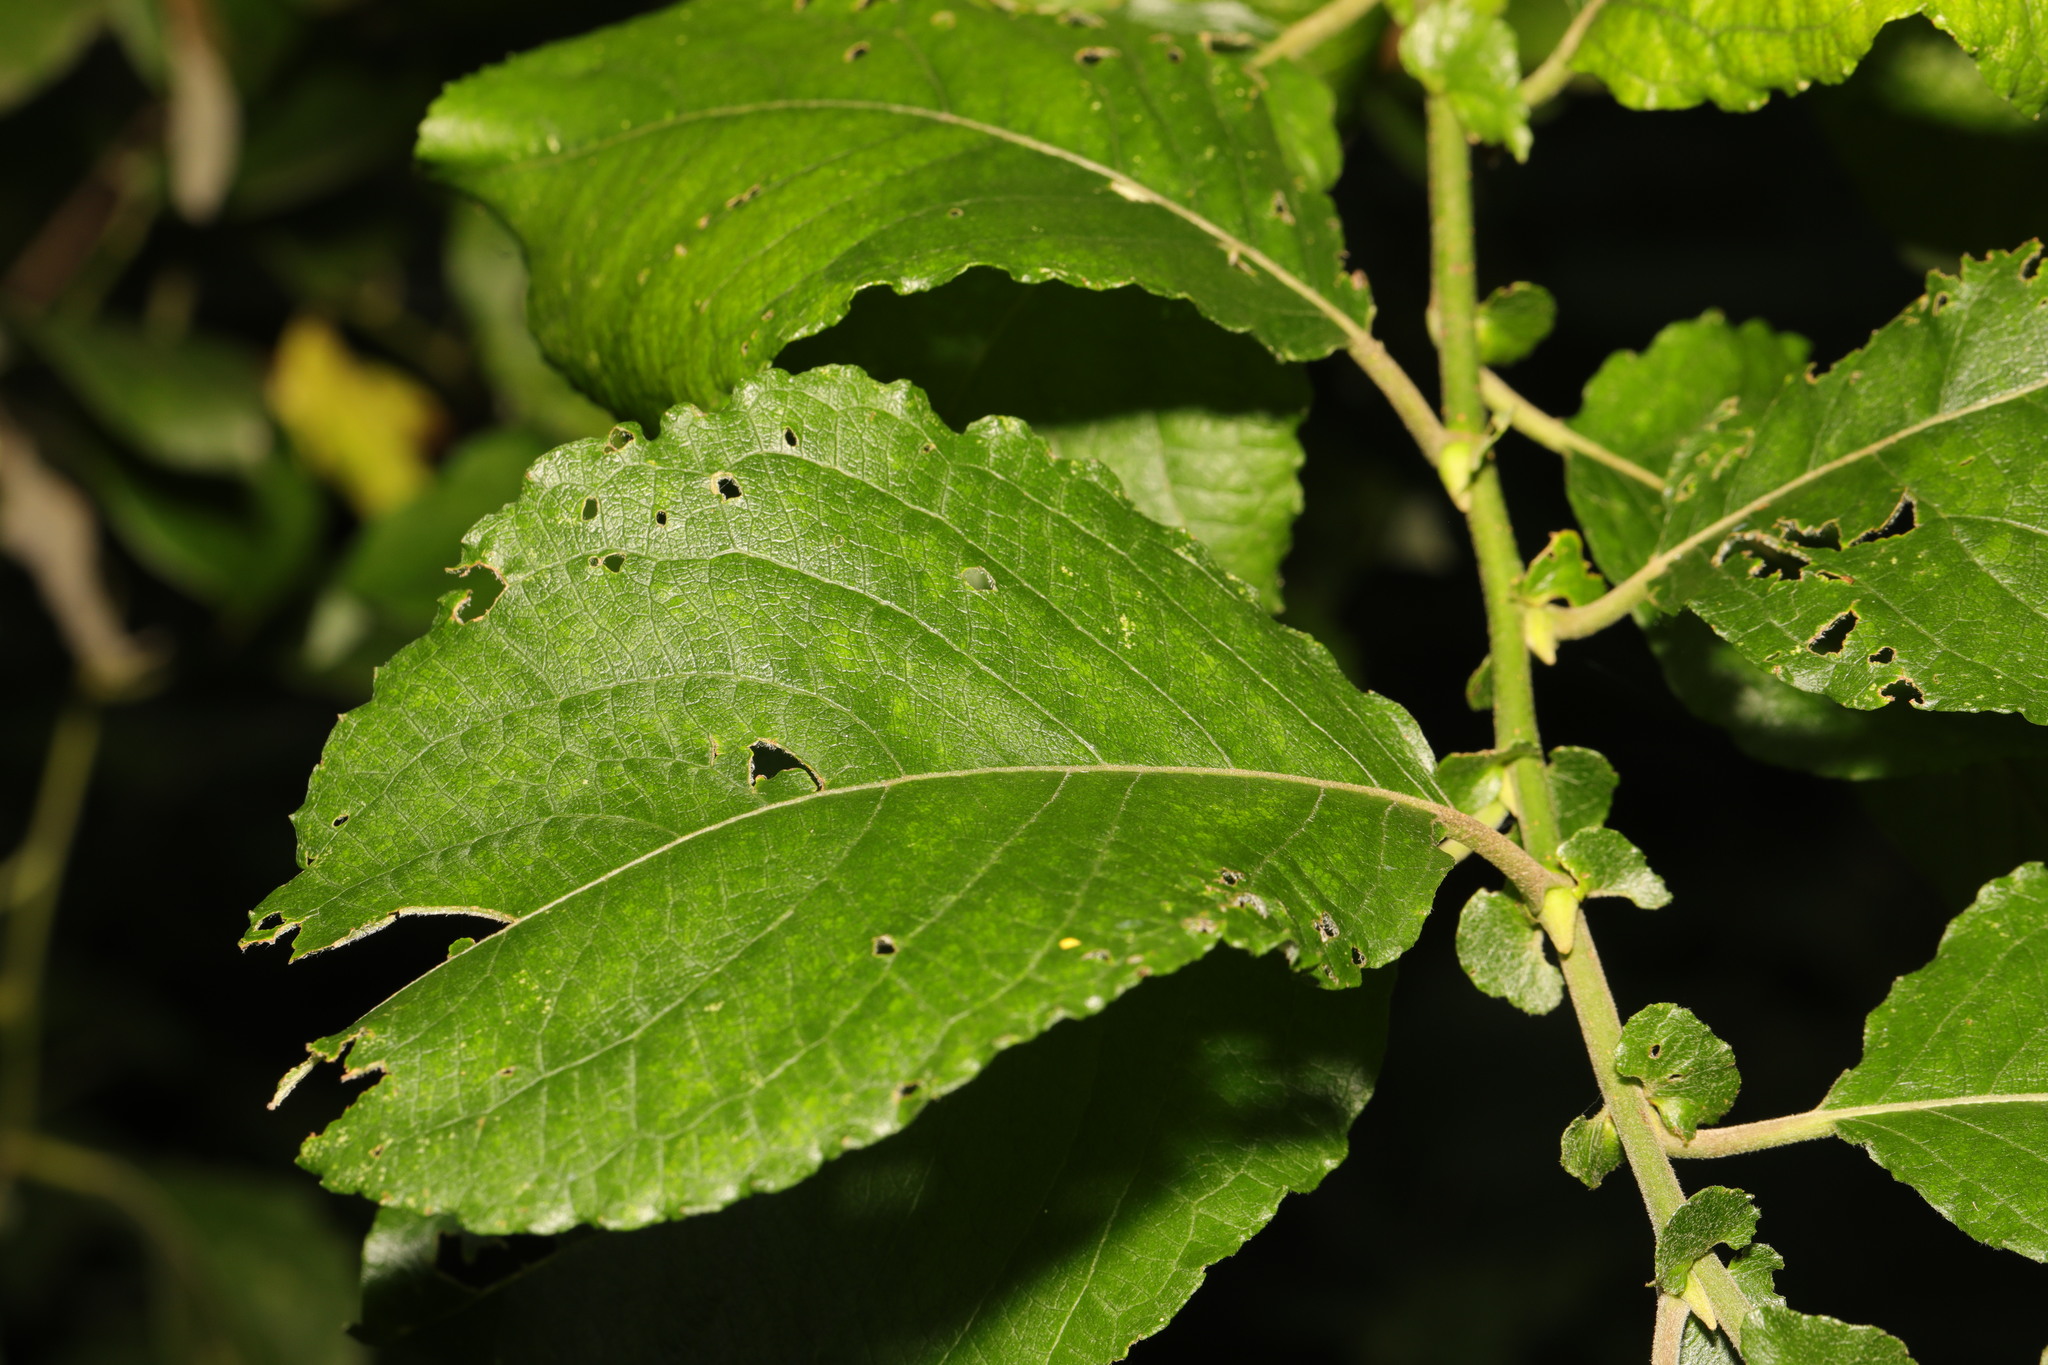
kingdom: Plantae
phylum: Tracheophyta
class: Magnoliopsida
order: Malpighiales
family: Salicaceae
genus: Salix
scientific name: Salix caprea
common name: Goat willow
